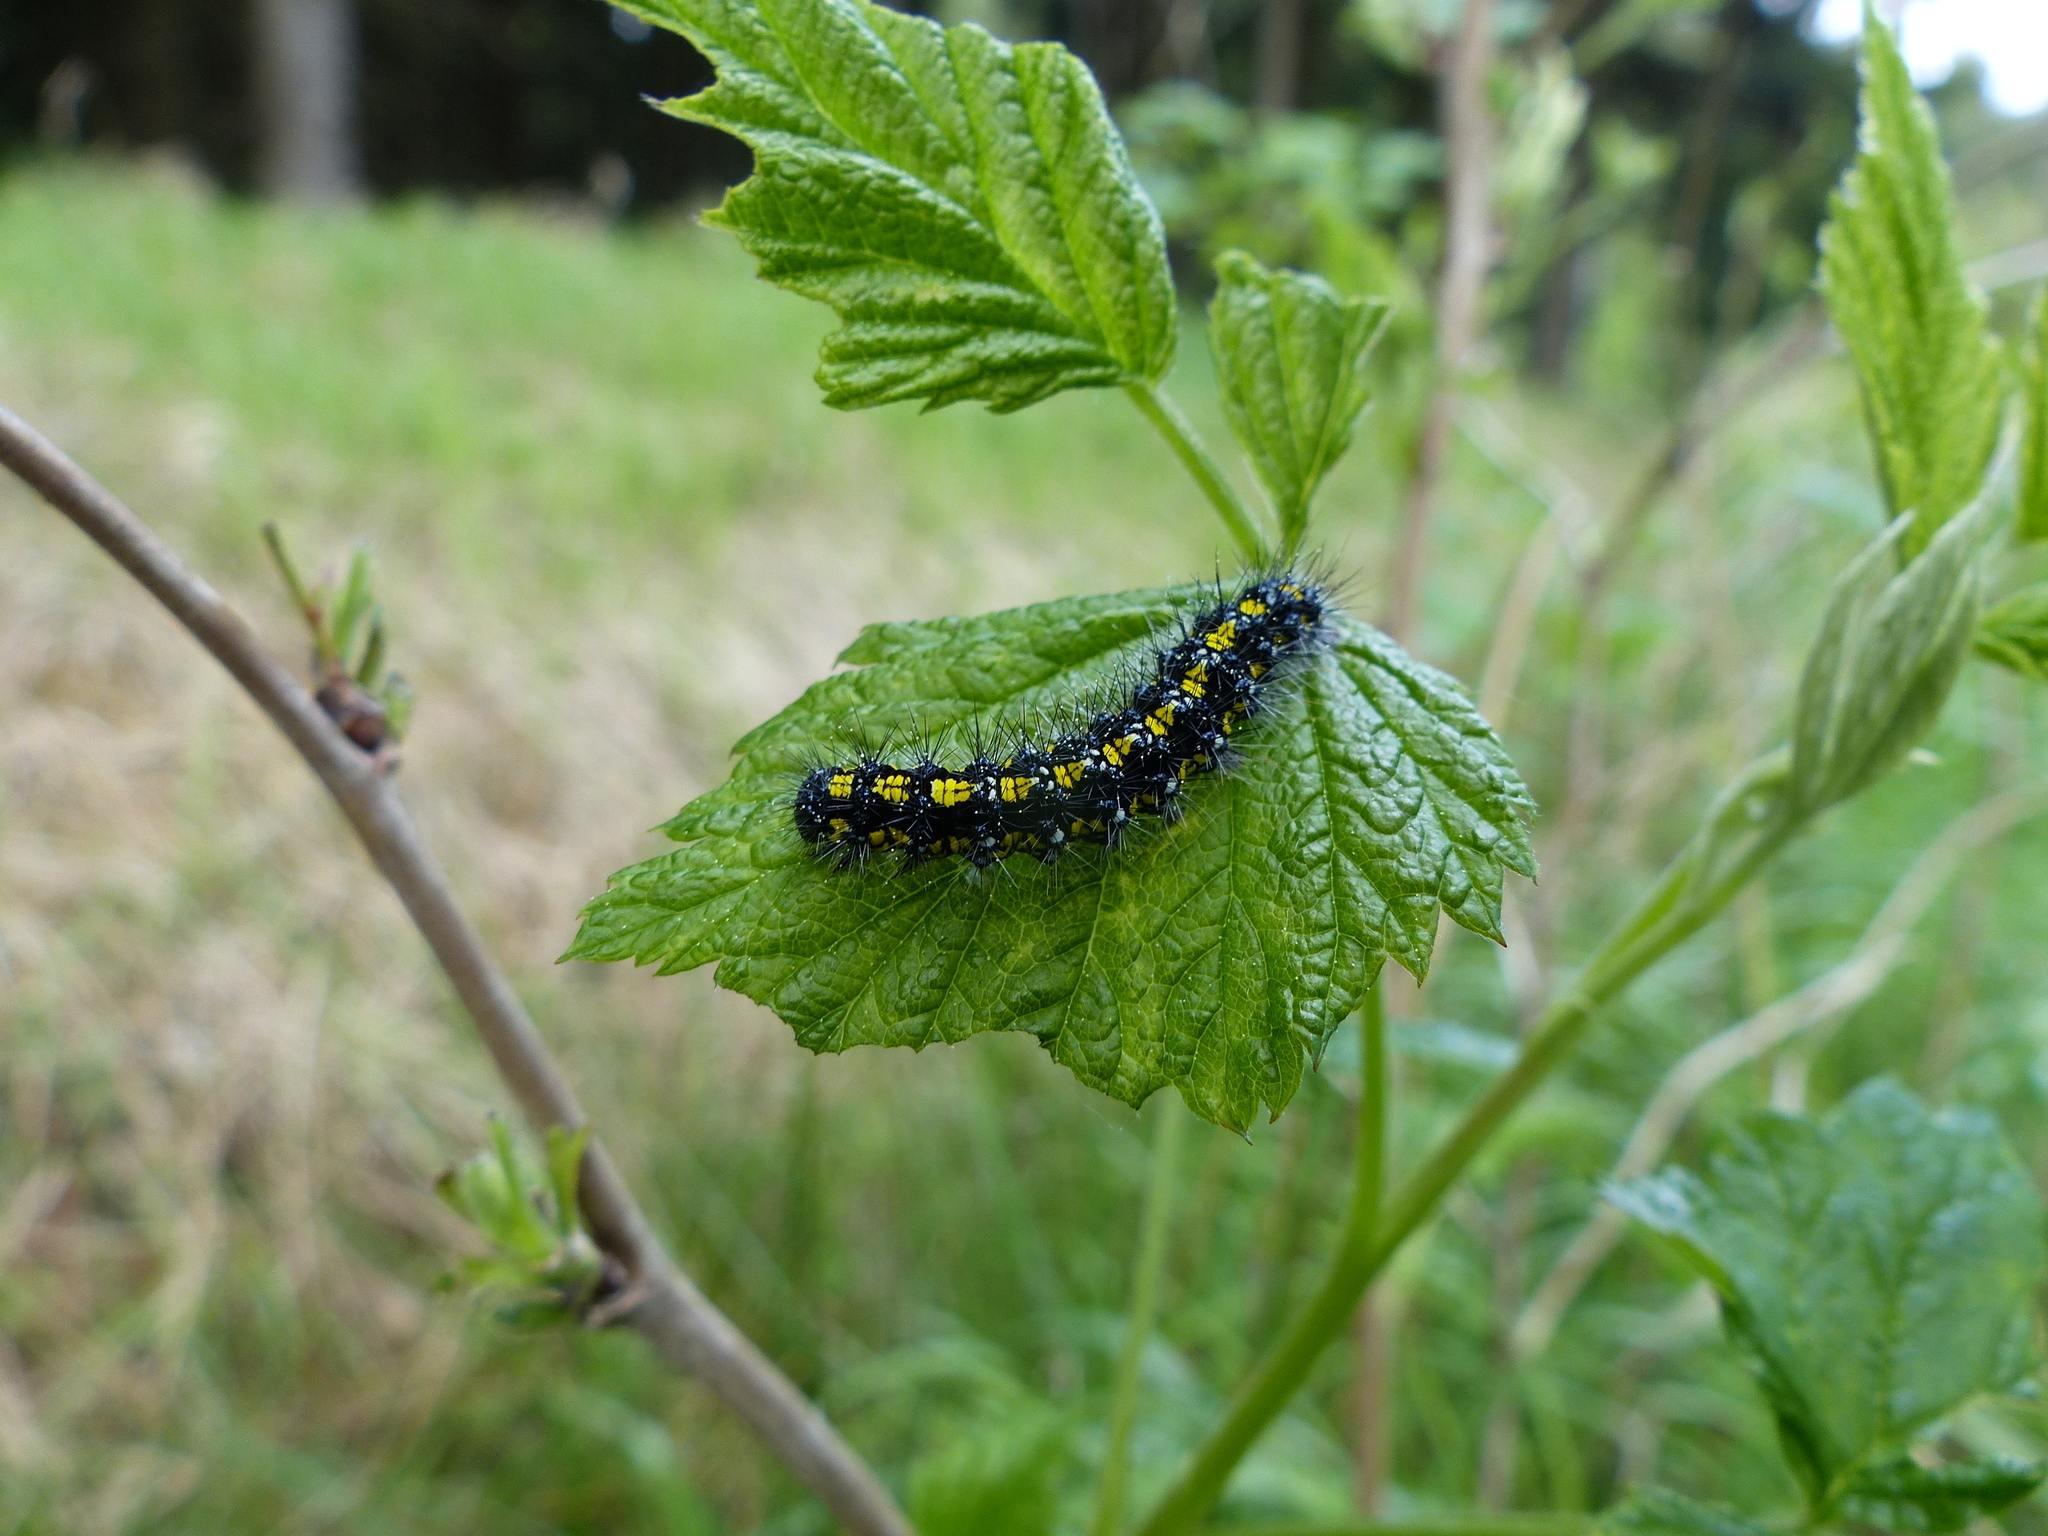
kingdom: Animalia
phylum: Arthropoda
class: Insecta
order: Lepidoptera
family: Erebidae
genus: Callimorpha
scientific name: Callimorpha dominula
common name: Scarlet tiger
